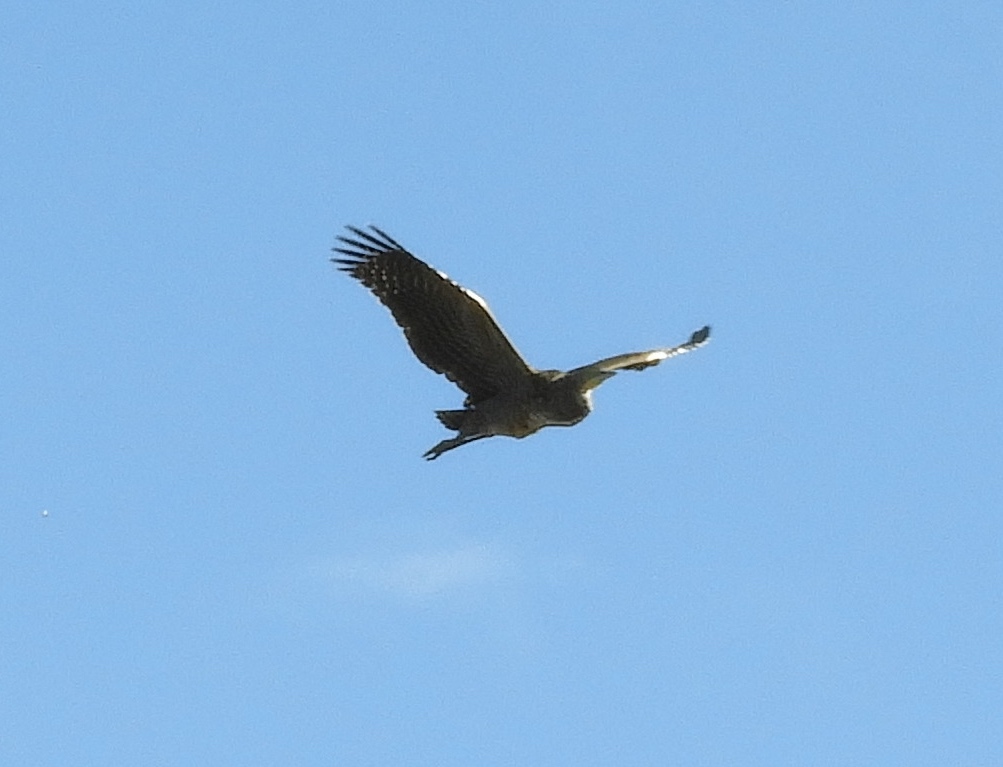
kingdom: Animalia
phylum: Chordata
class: Aves
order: Pelecaniformes
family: Ardeidae
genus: Tigrisoma
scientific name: Tigrisoma mexicanum
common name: Bare-throated tiger-heron
